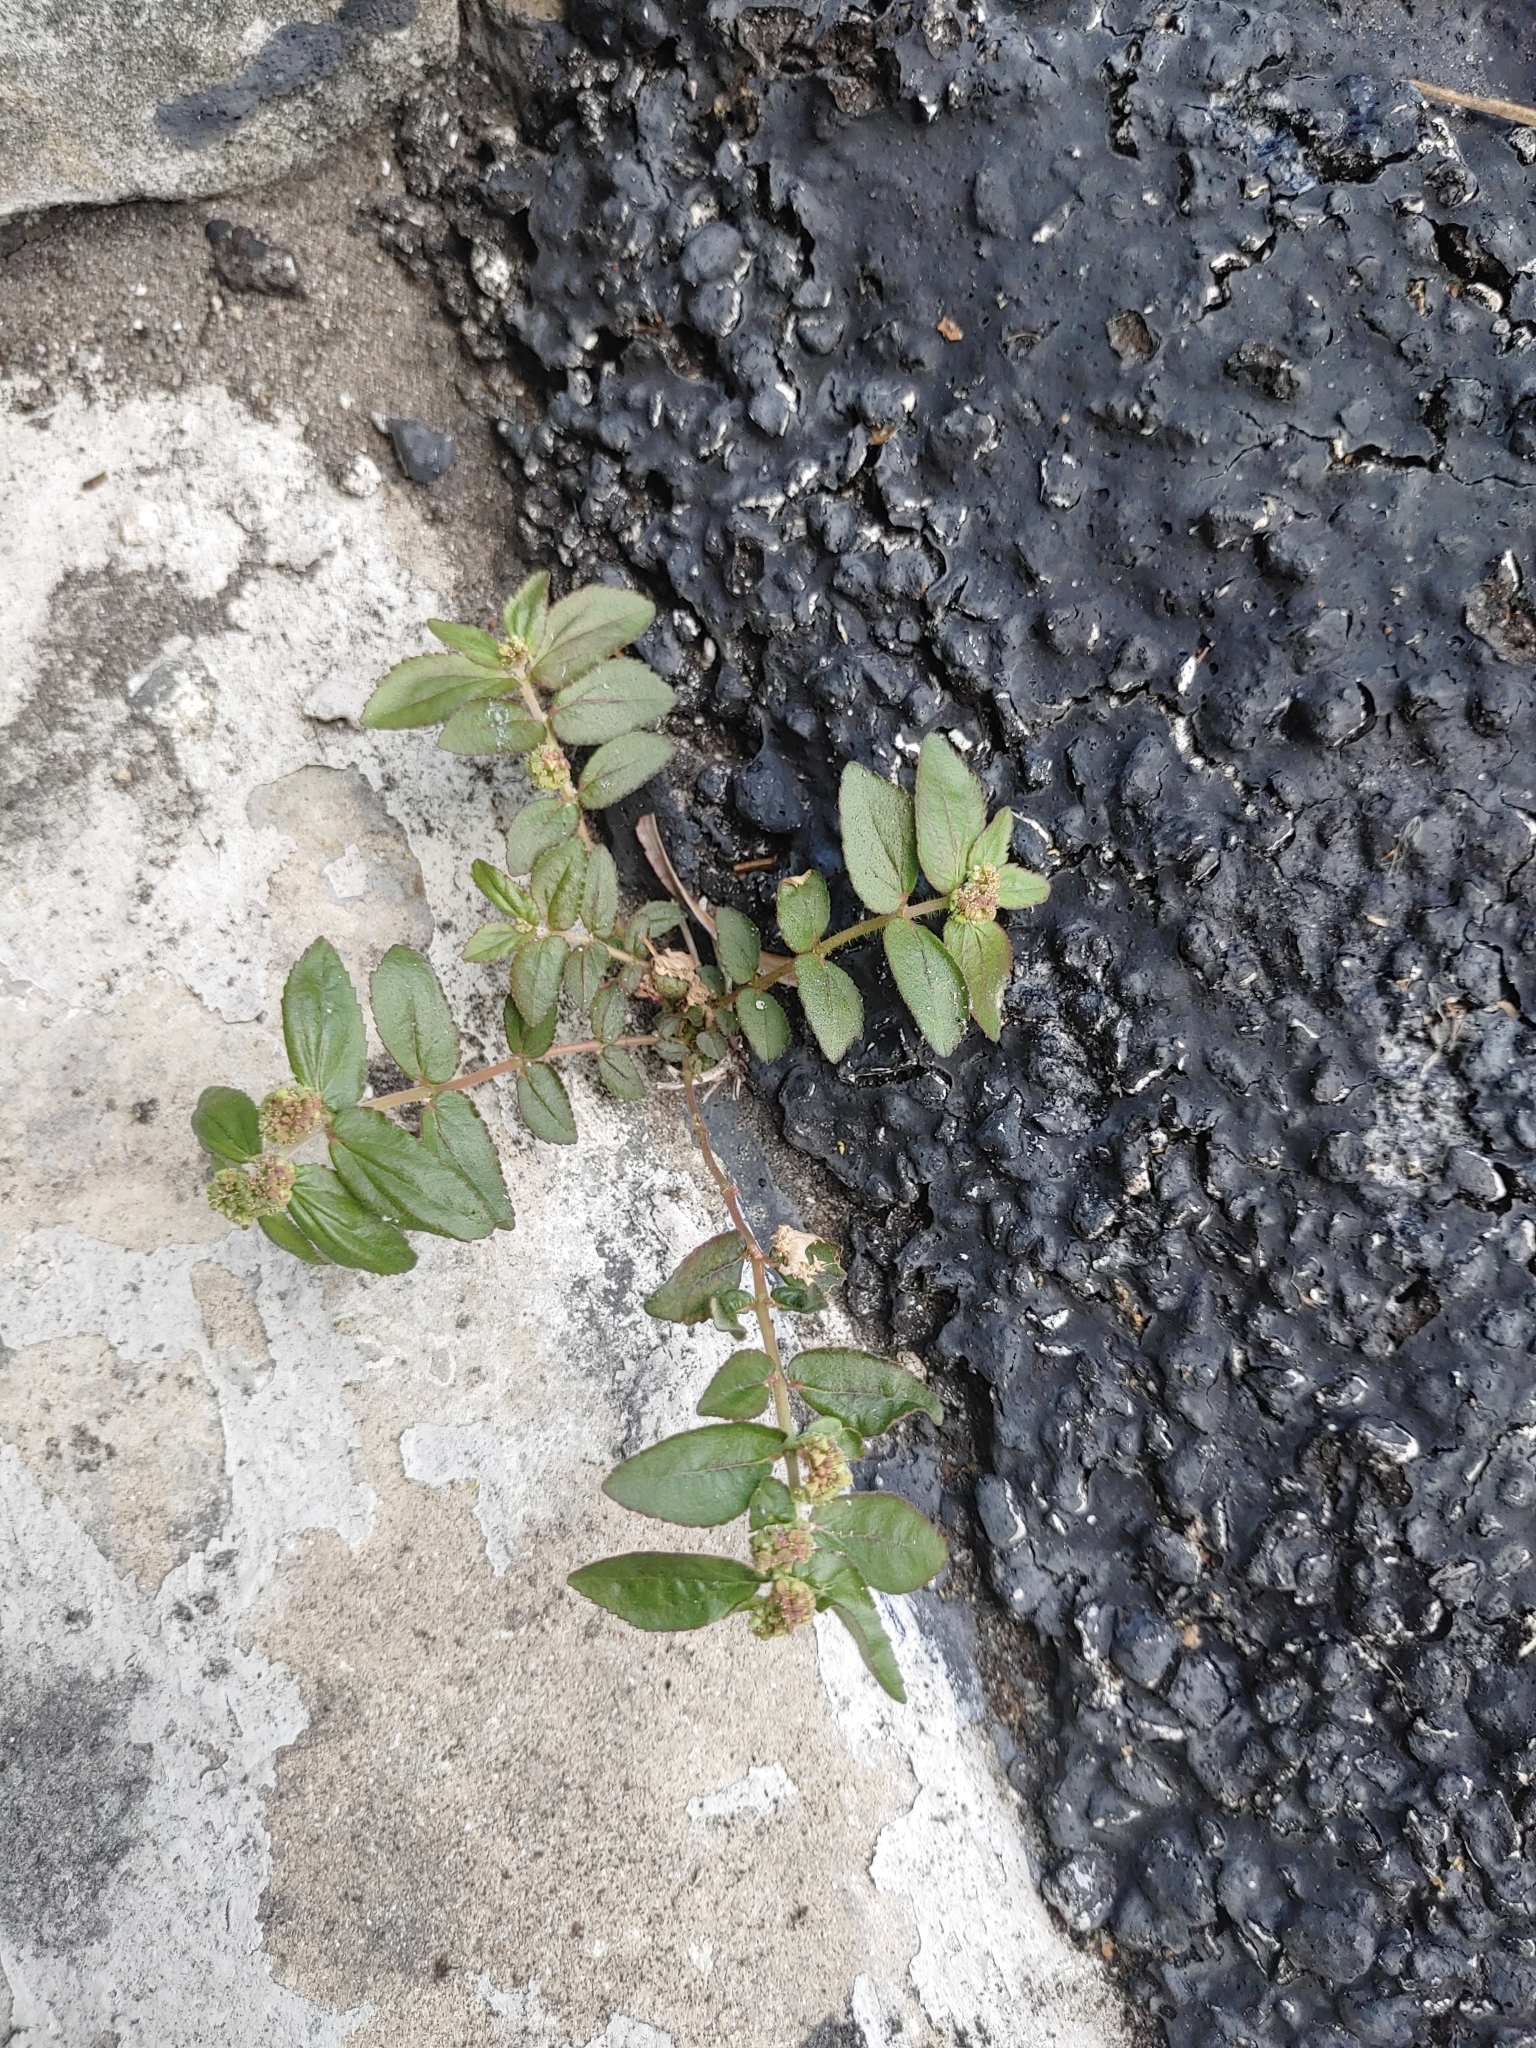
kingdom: Plantae
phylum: Tracheophyta
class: Magnoliopsida
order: Malpighiales
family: Euphorbiaceae
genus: Euphorbia
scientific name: Euphorbia hirta
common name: Pillpod sandmat
